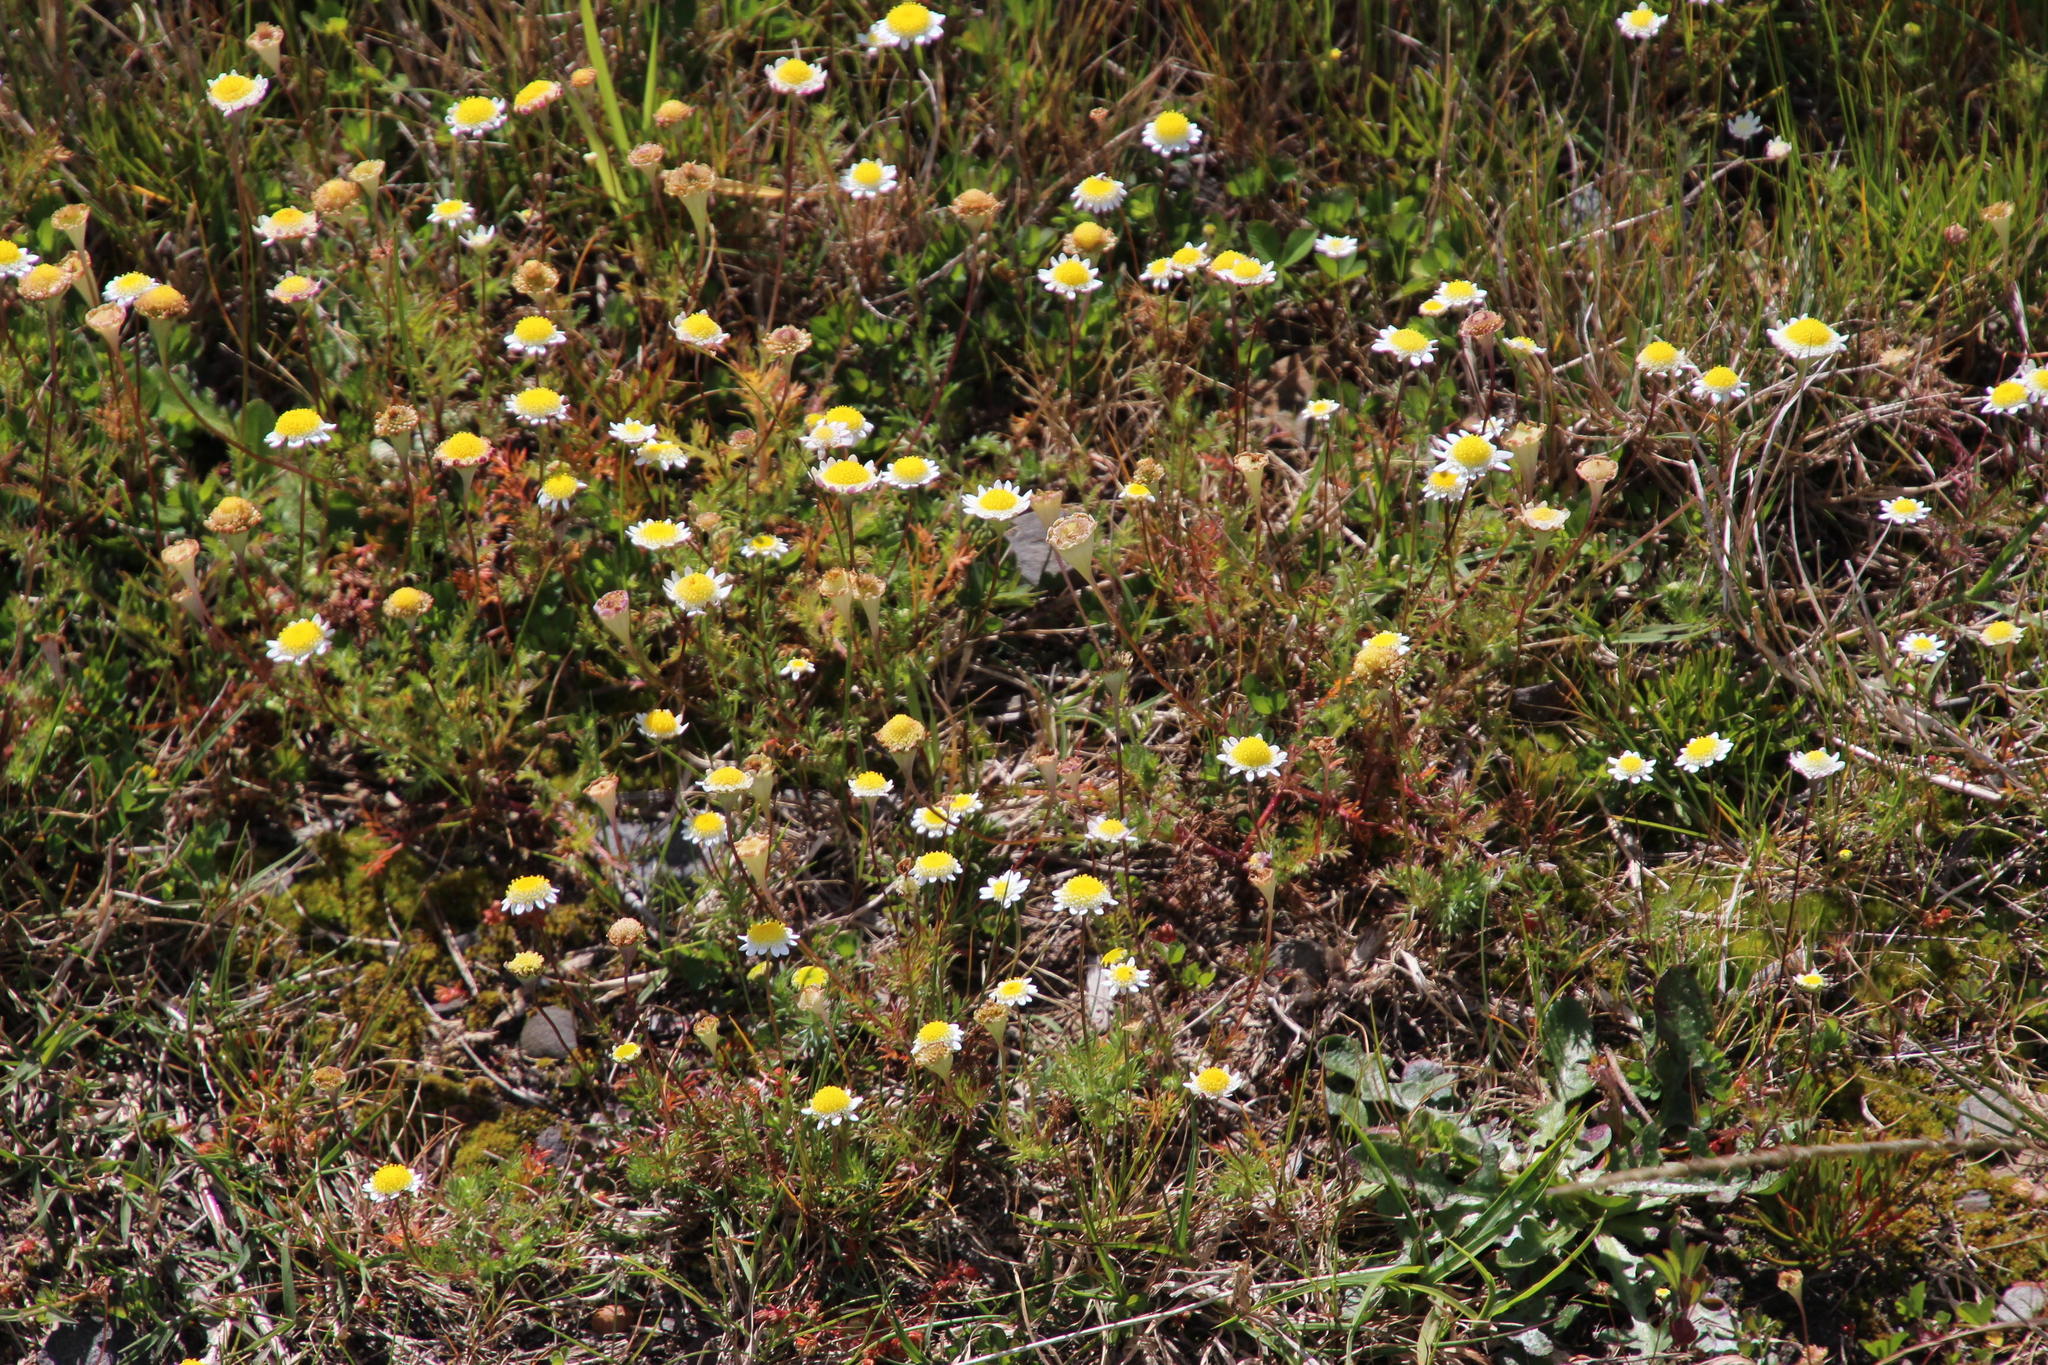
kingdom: Plantae
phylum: Tracheophyta
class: Magnoliopsida
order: Asterales
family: Asteraceae
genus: Cotula
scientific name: Cotula turbinata
